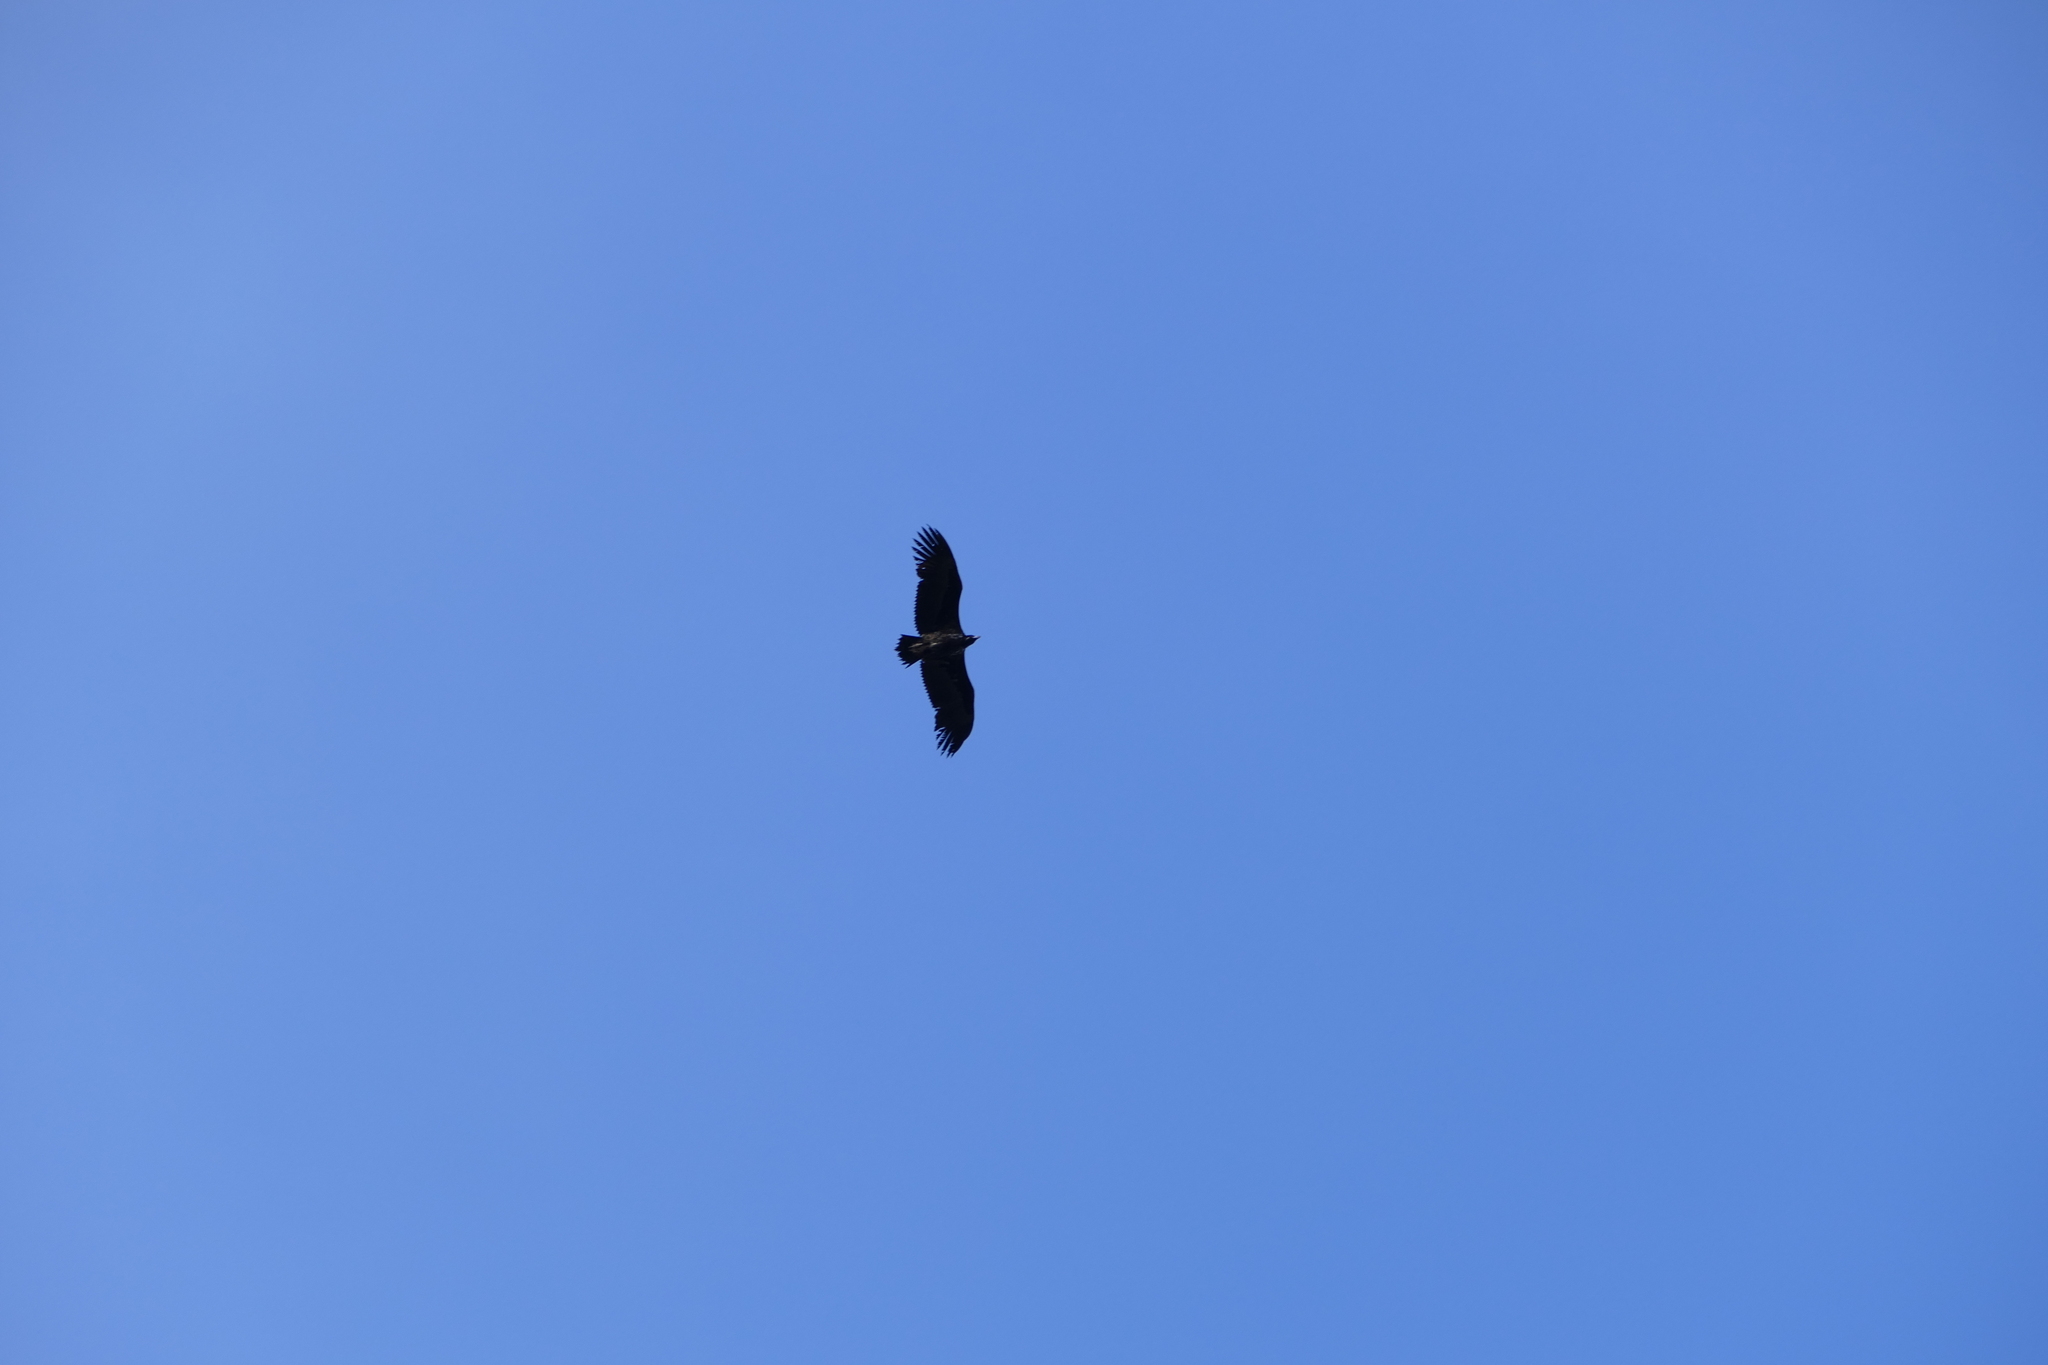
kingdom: Animalia
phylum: Chordata
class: Aves
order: Accipitriformes
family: Accipitridae
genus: Aegypius
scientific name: Aegypius monachus
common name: Cinereous vulture
